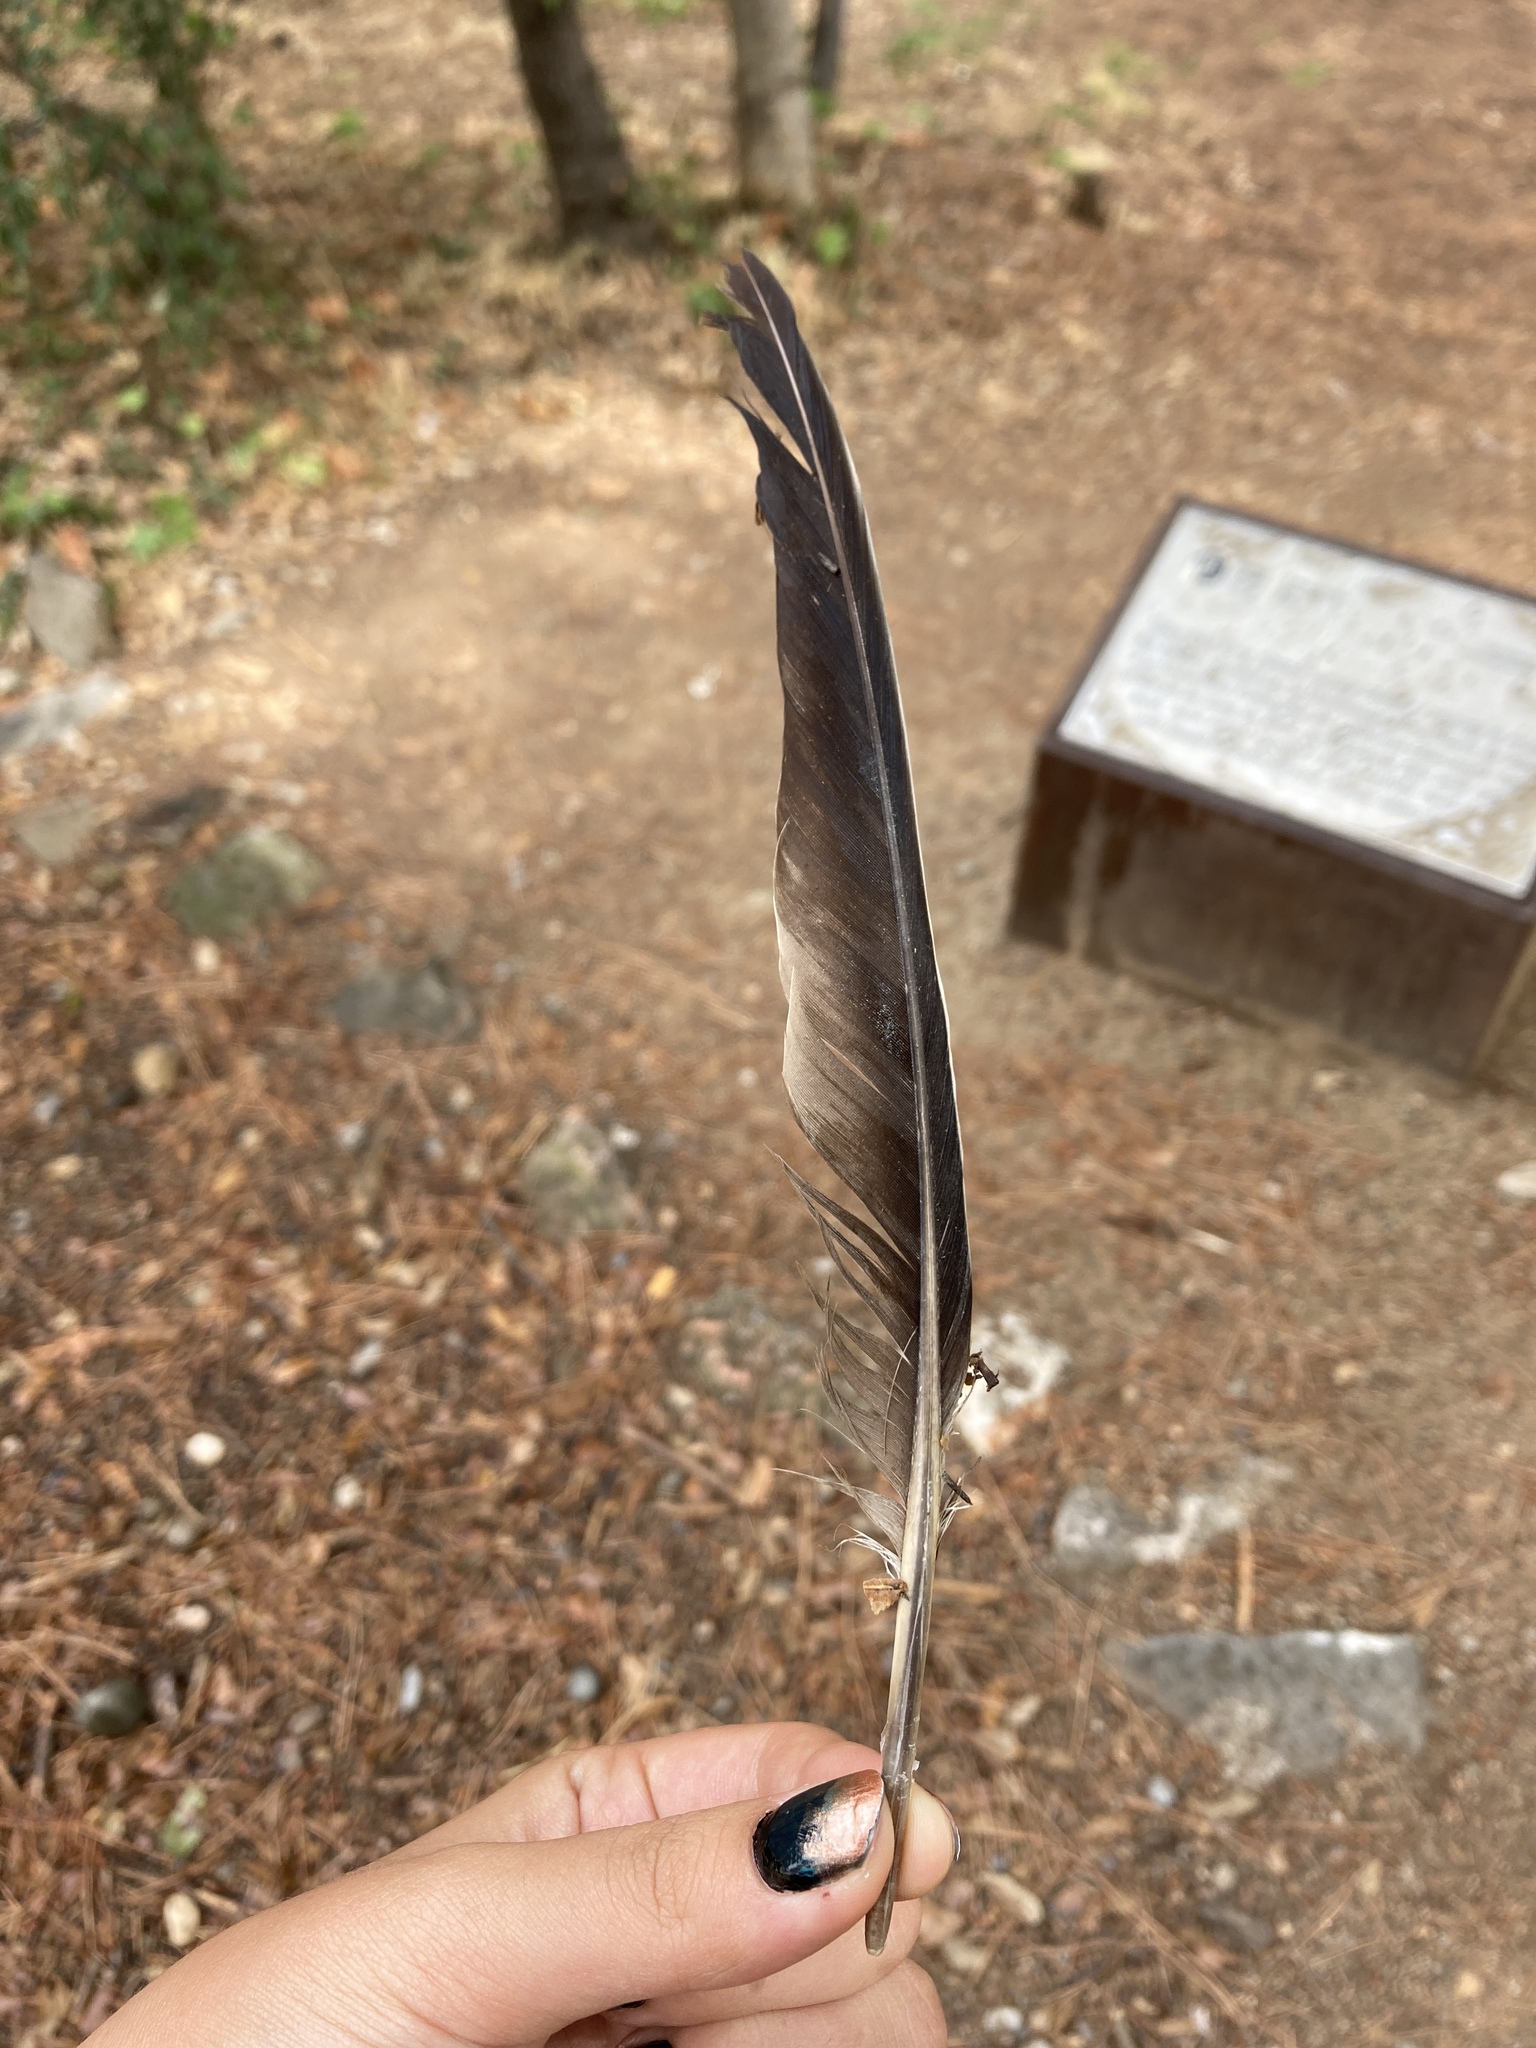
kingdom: Animalia
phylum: Chordata
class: Aves
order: Columbiformes
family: Columbidae
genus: Columba
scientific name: Columba palumbus
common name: Common wood pigeon
